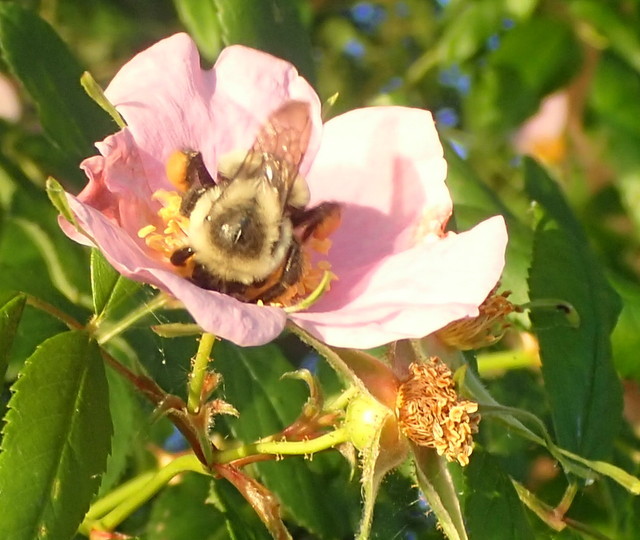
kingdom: Animalia
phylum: Arthropoda
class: Insecta
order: Hymenoptera
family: Apidae
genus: Bombus
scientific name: Bombus impatiens
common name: Common eastern bumble bee
